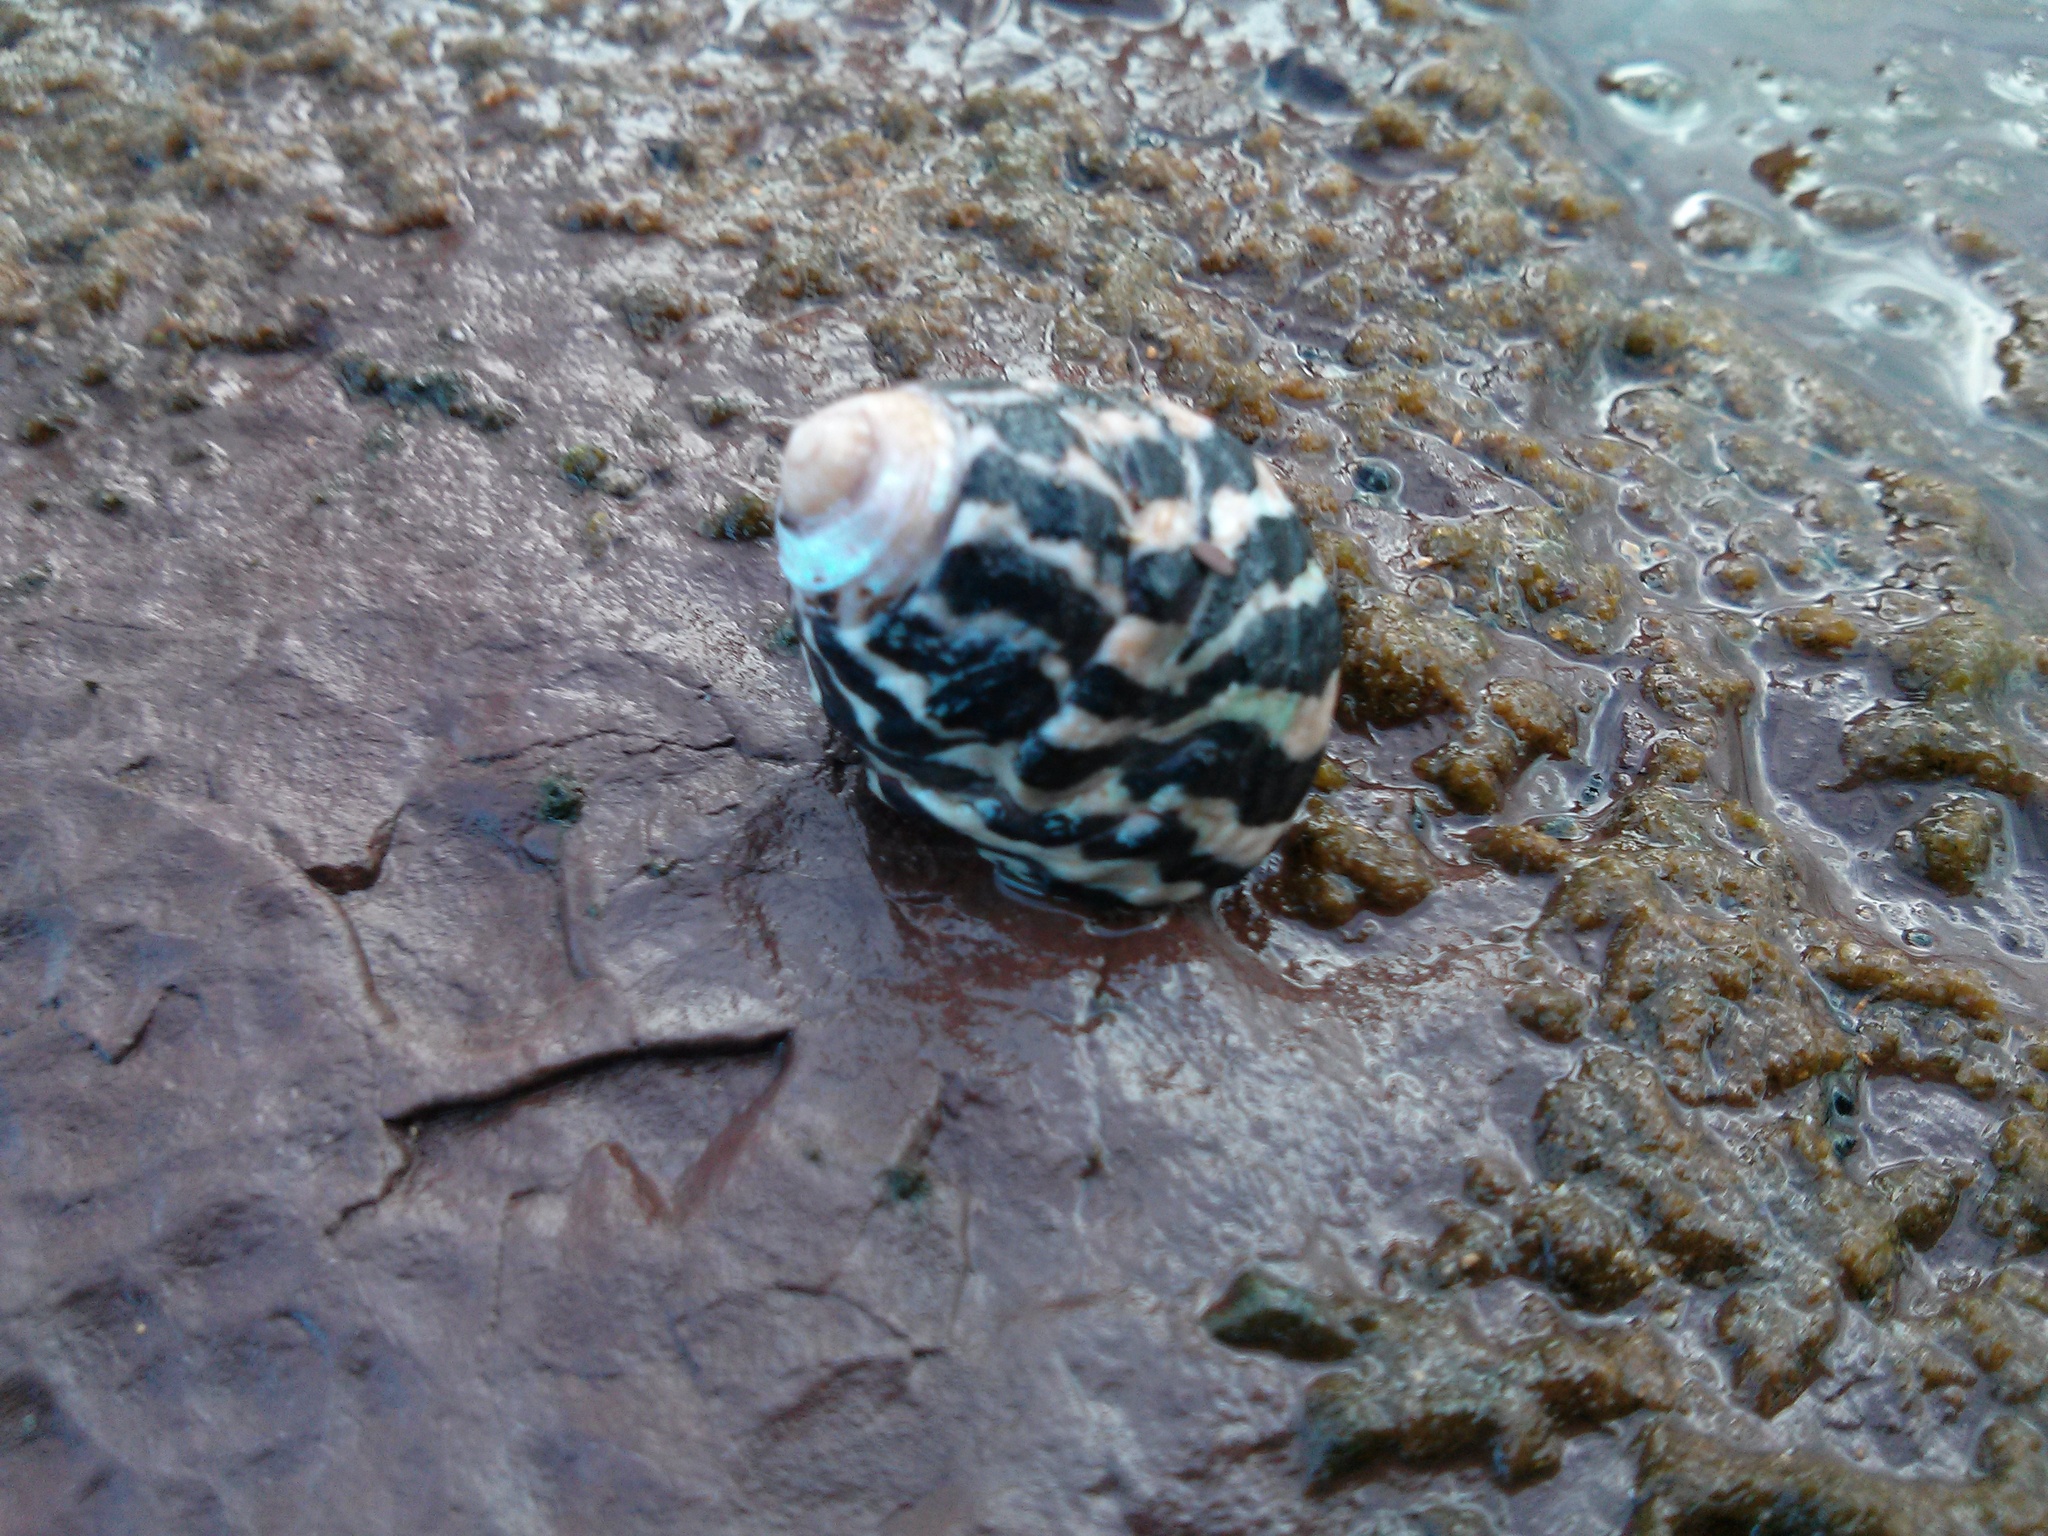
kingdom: Animalia
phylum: Mollusca
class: Gastropoda
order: Trochida
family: Trochidae
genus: Austrocochlea
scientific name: Austrocochlea porcata
